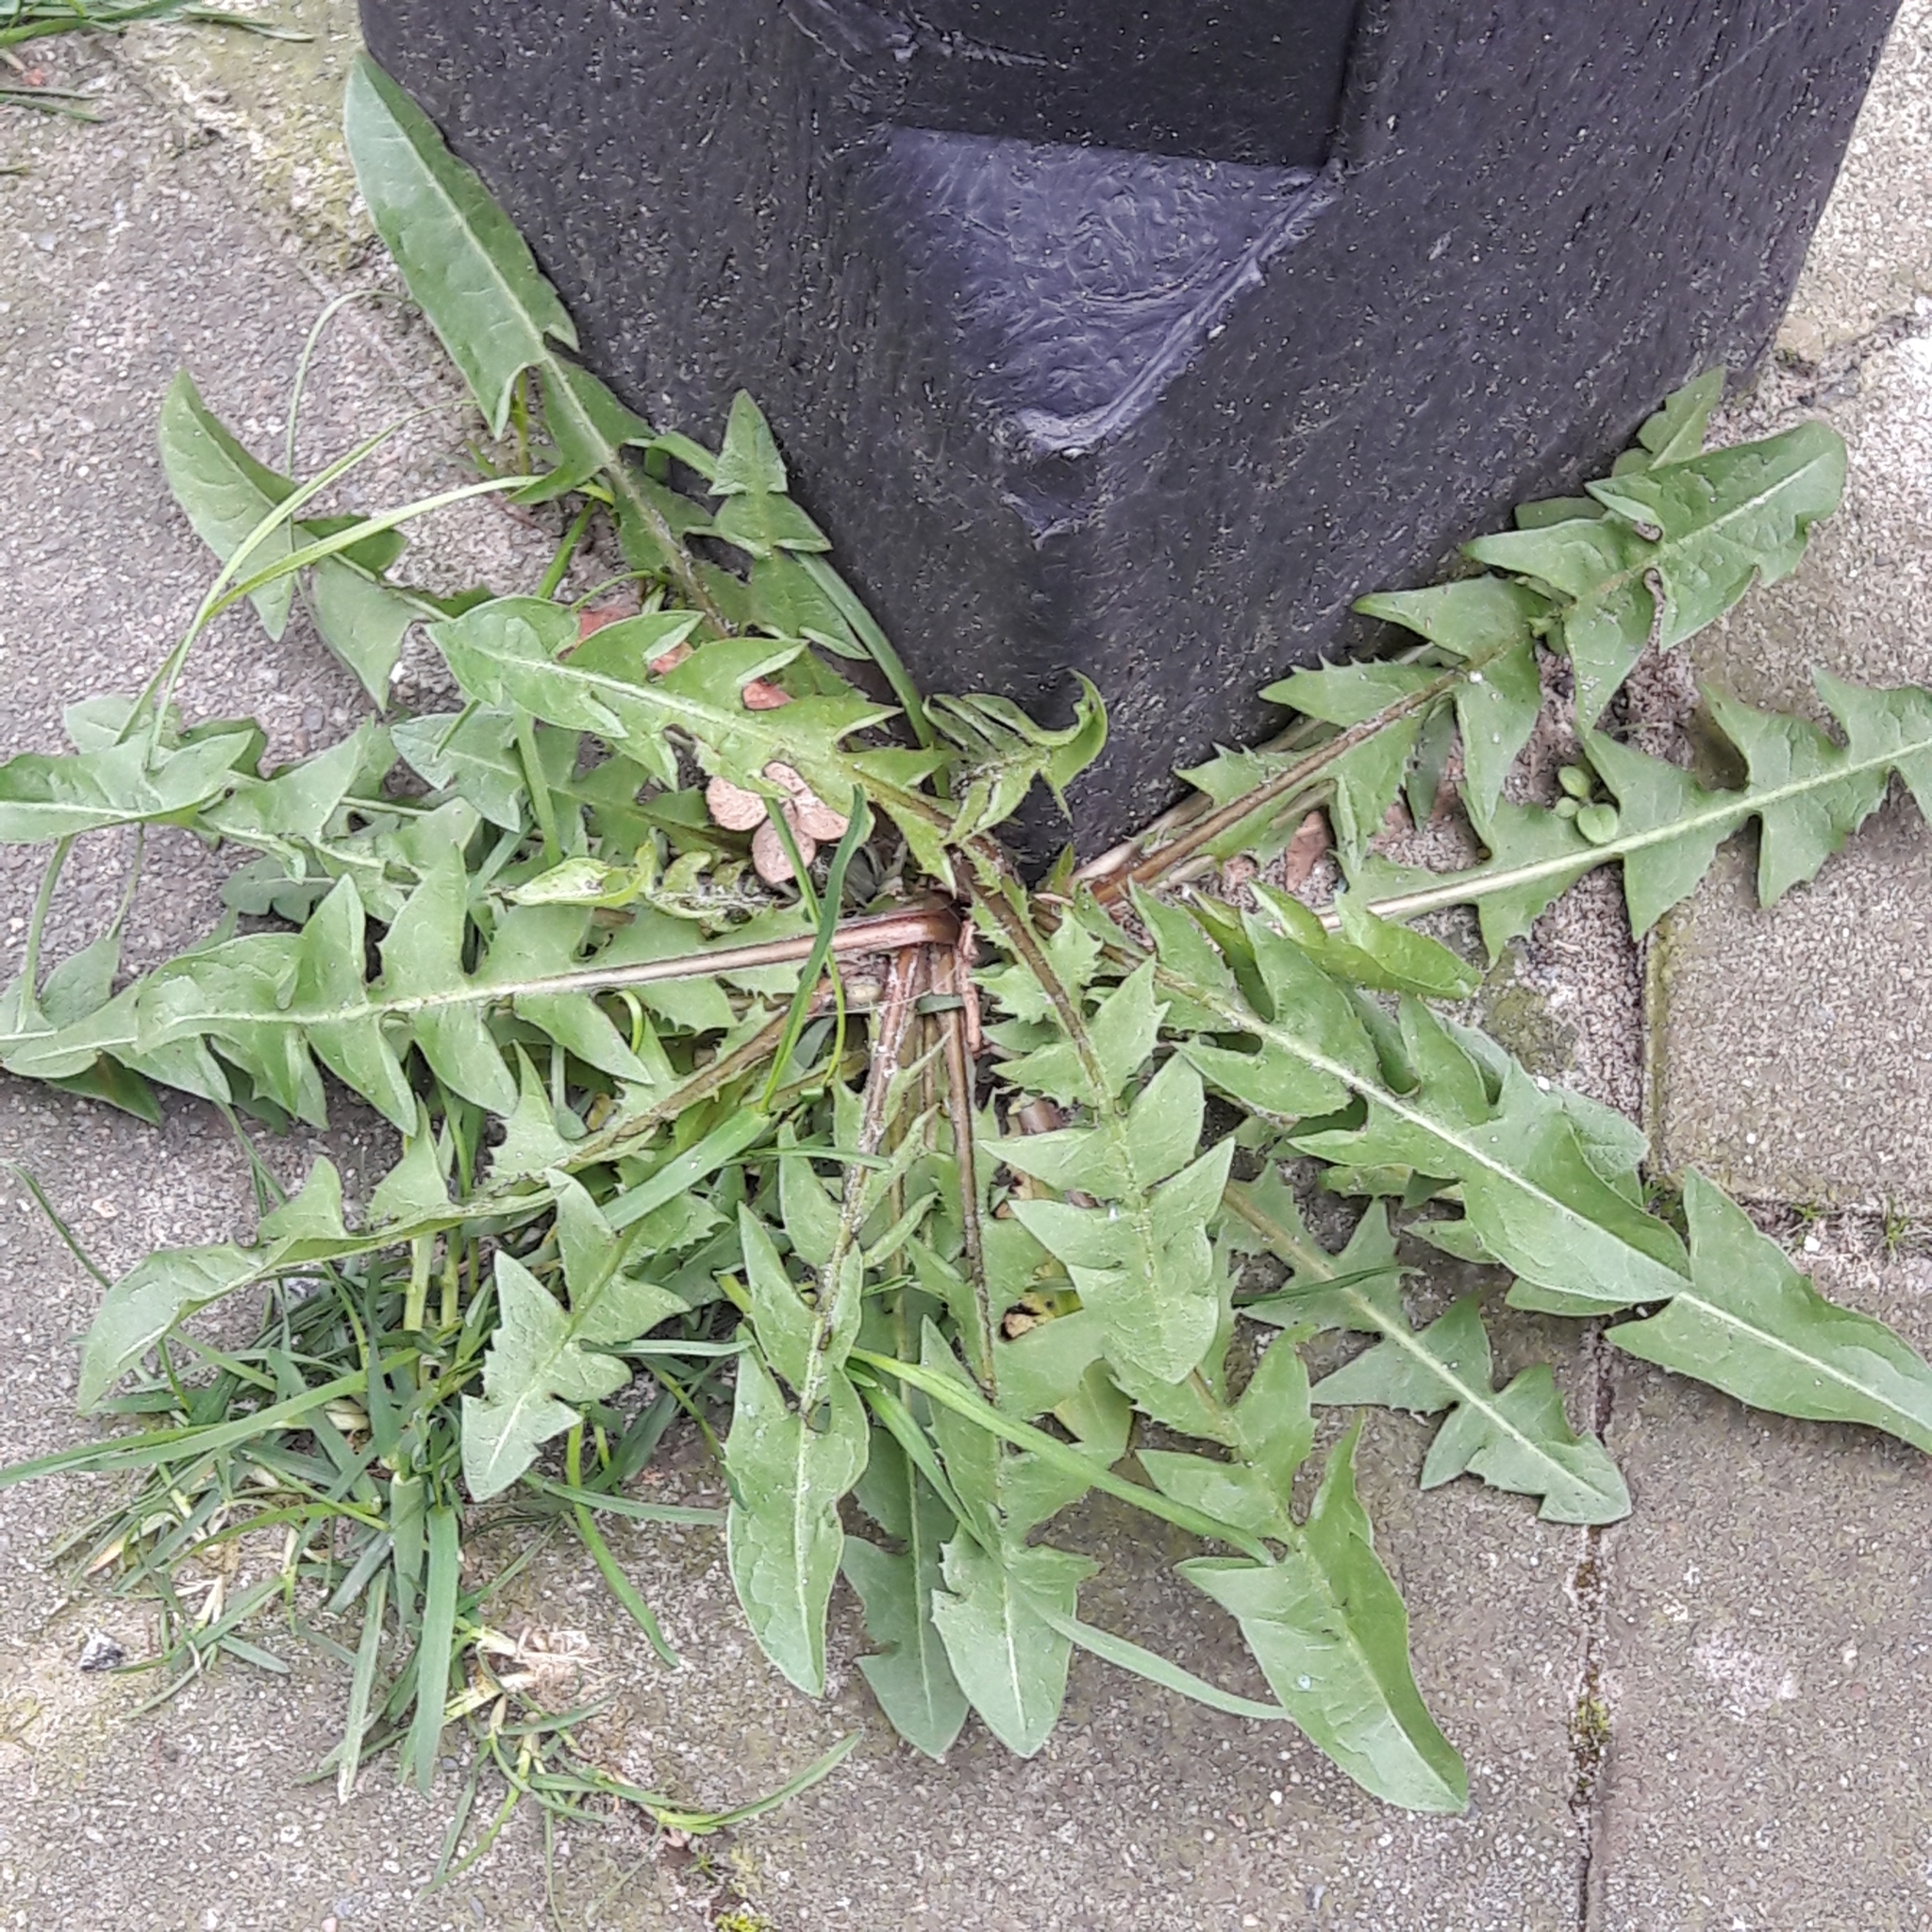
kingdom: Plantae
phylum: Tracheophyta
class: Magnoliopsida
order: Asterales
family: Asteraceae
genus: Taraxacum
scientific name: Taraxacum officinale
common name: Common dandelion
